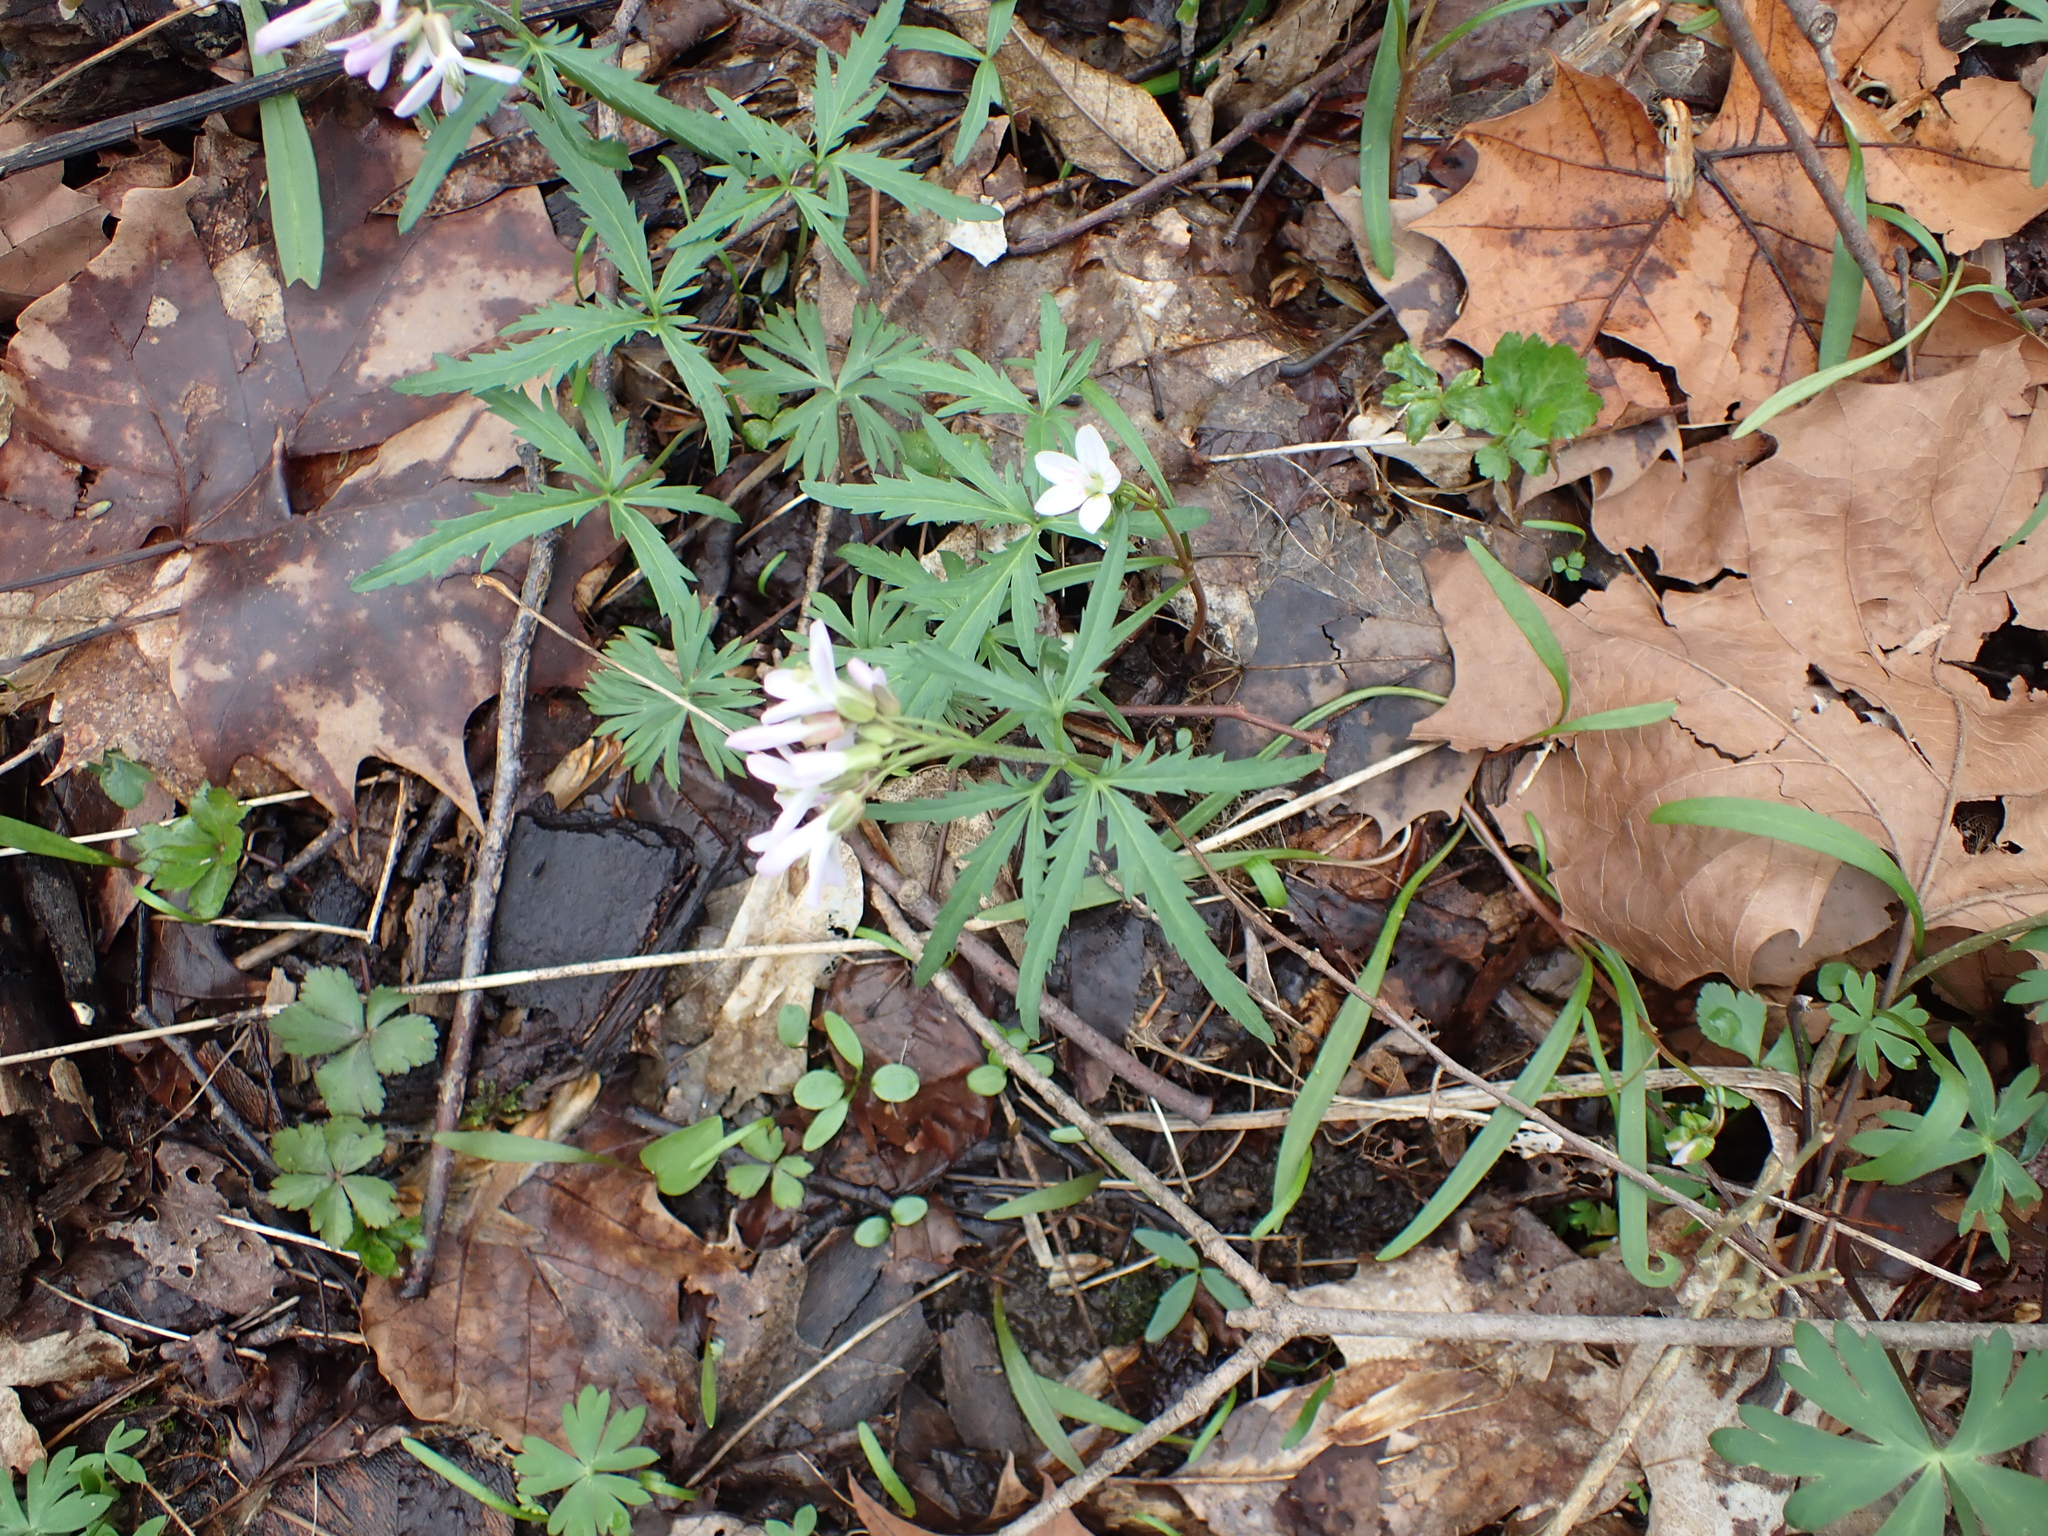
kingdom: Plantae
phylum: Tracheophyta
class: Magnoliopsida
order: Brassicales
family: Brassicaceae
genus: Cardamine
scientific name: Cardamine concatenata
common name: Cut-leaf toothcup
